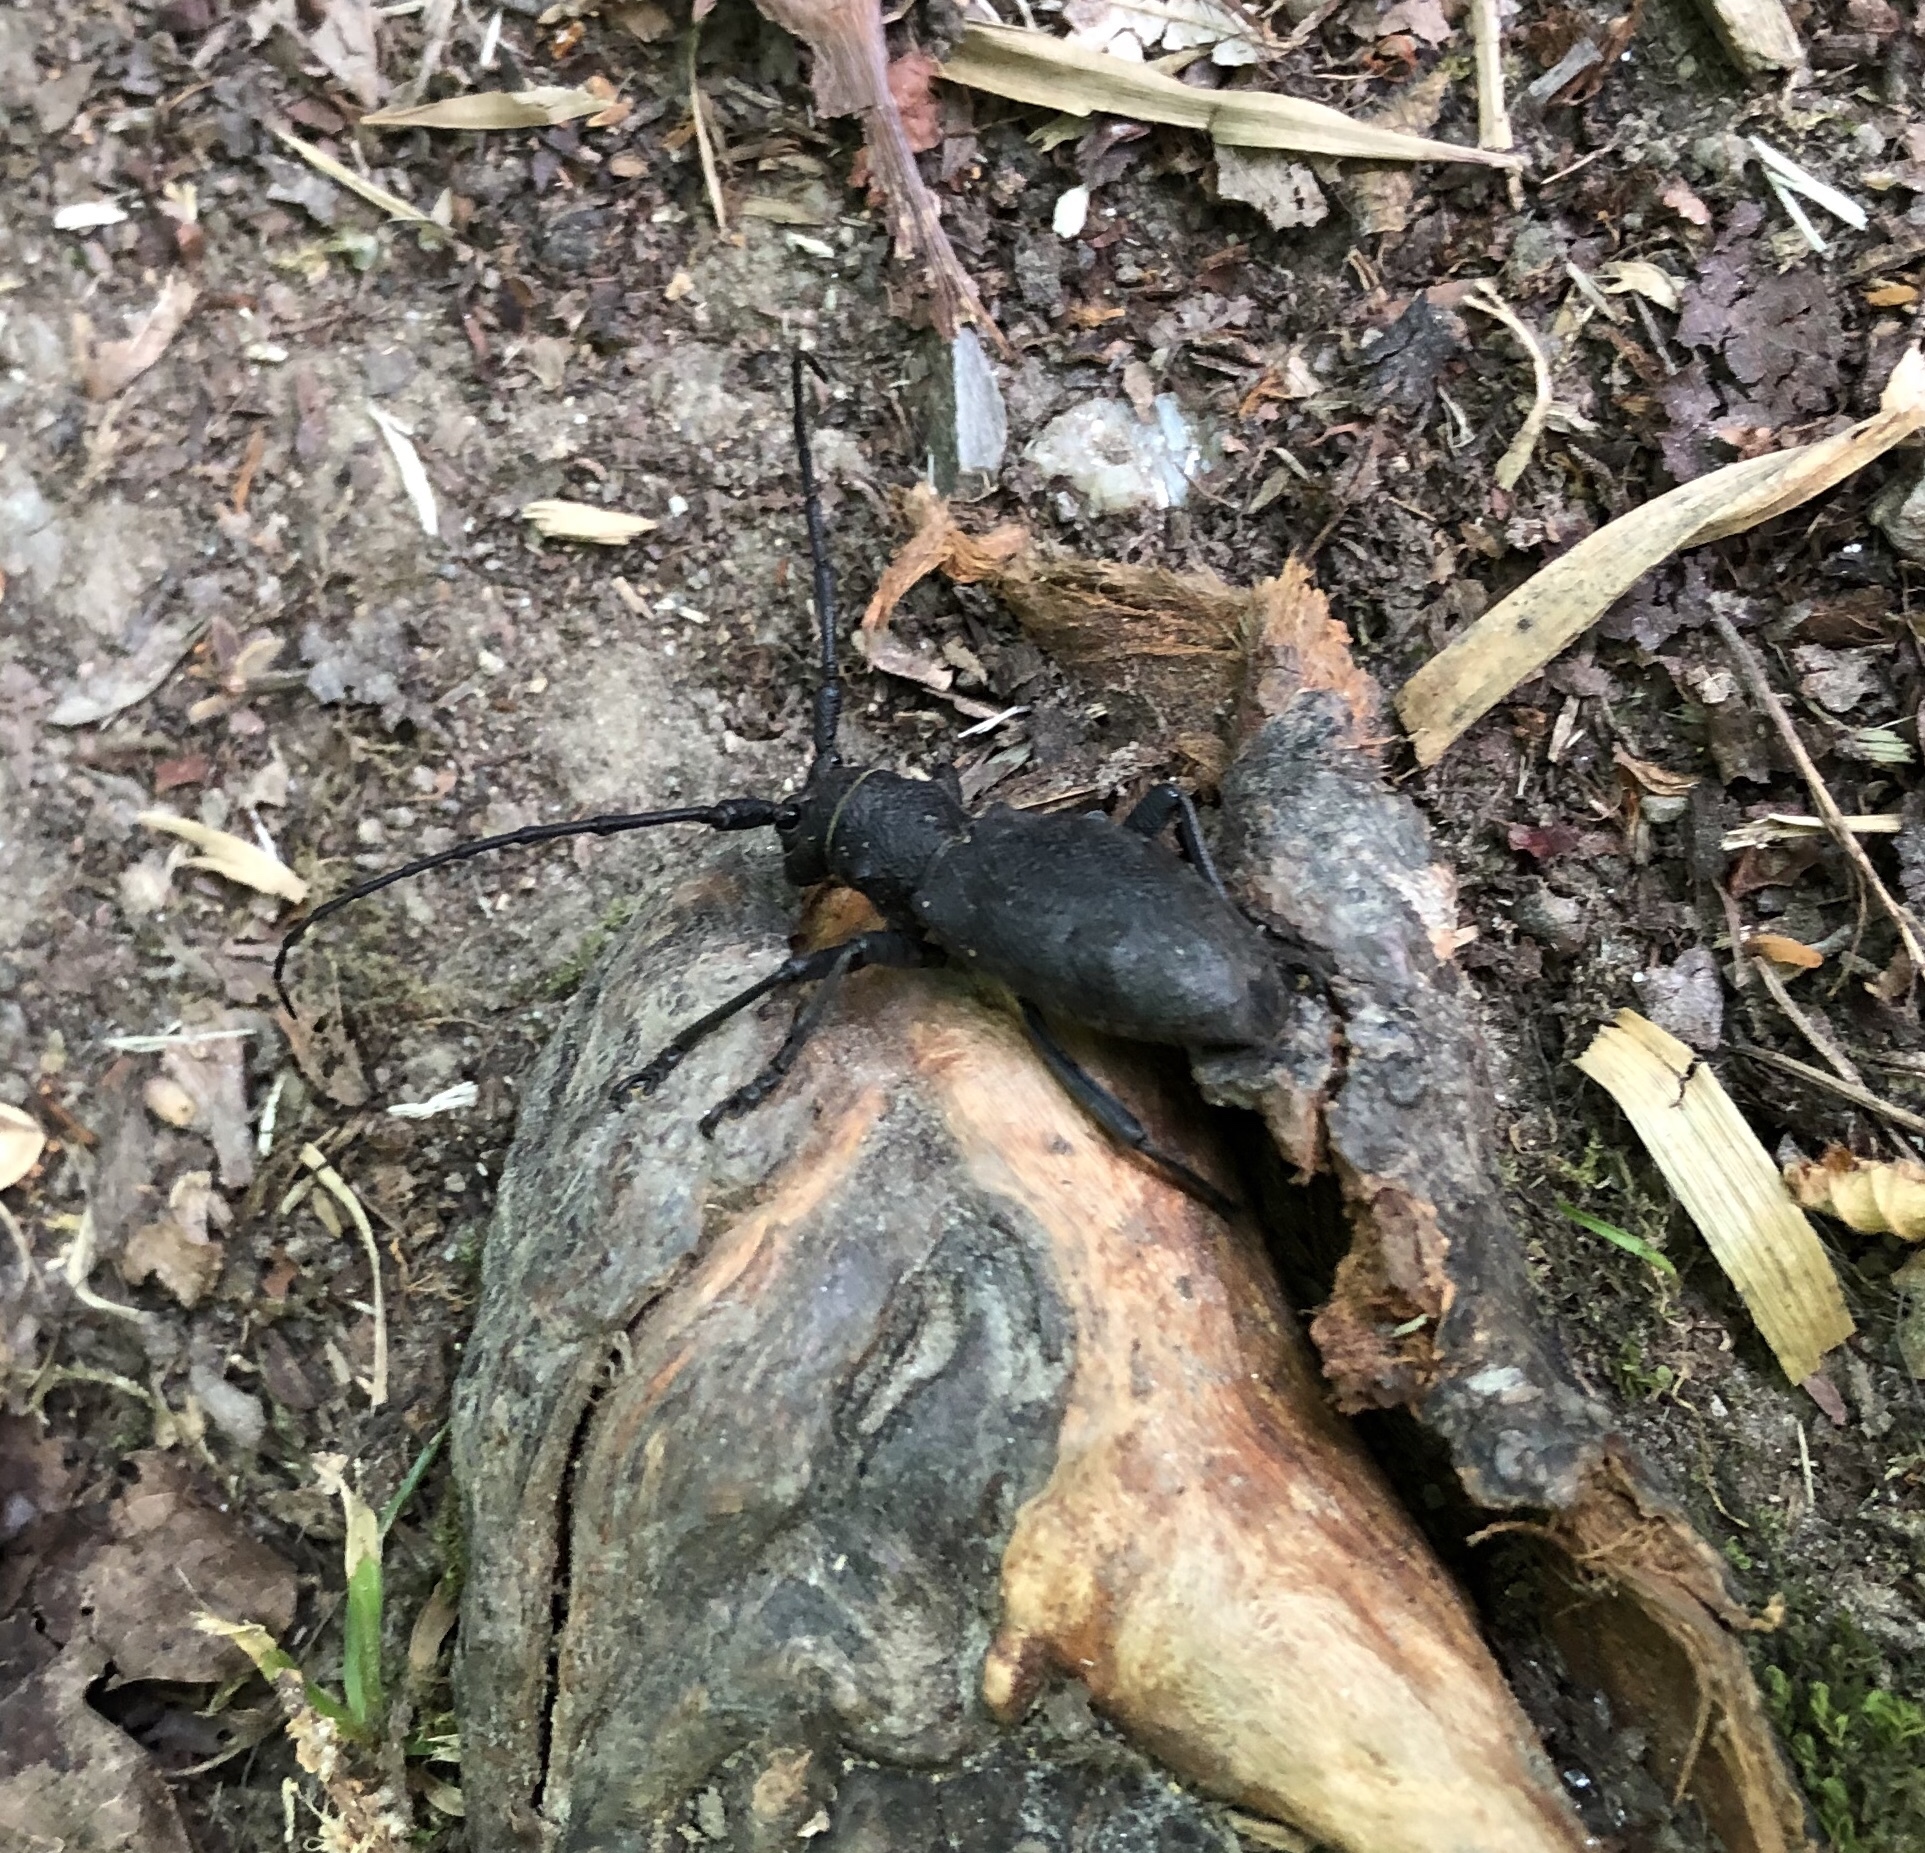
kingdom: Animalia
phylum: Arthropoda
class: Insecta
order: Coleoptera
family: Cerambycidae
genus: Morimus
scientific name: Morimus asper
